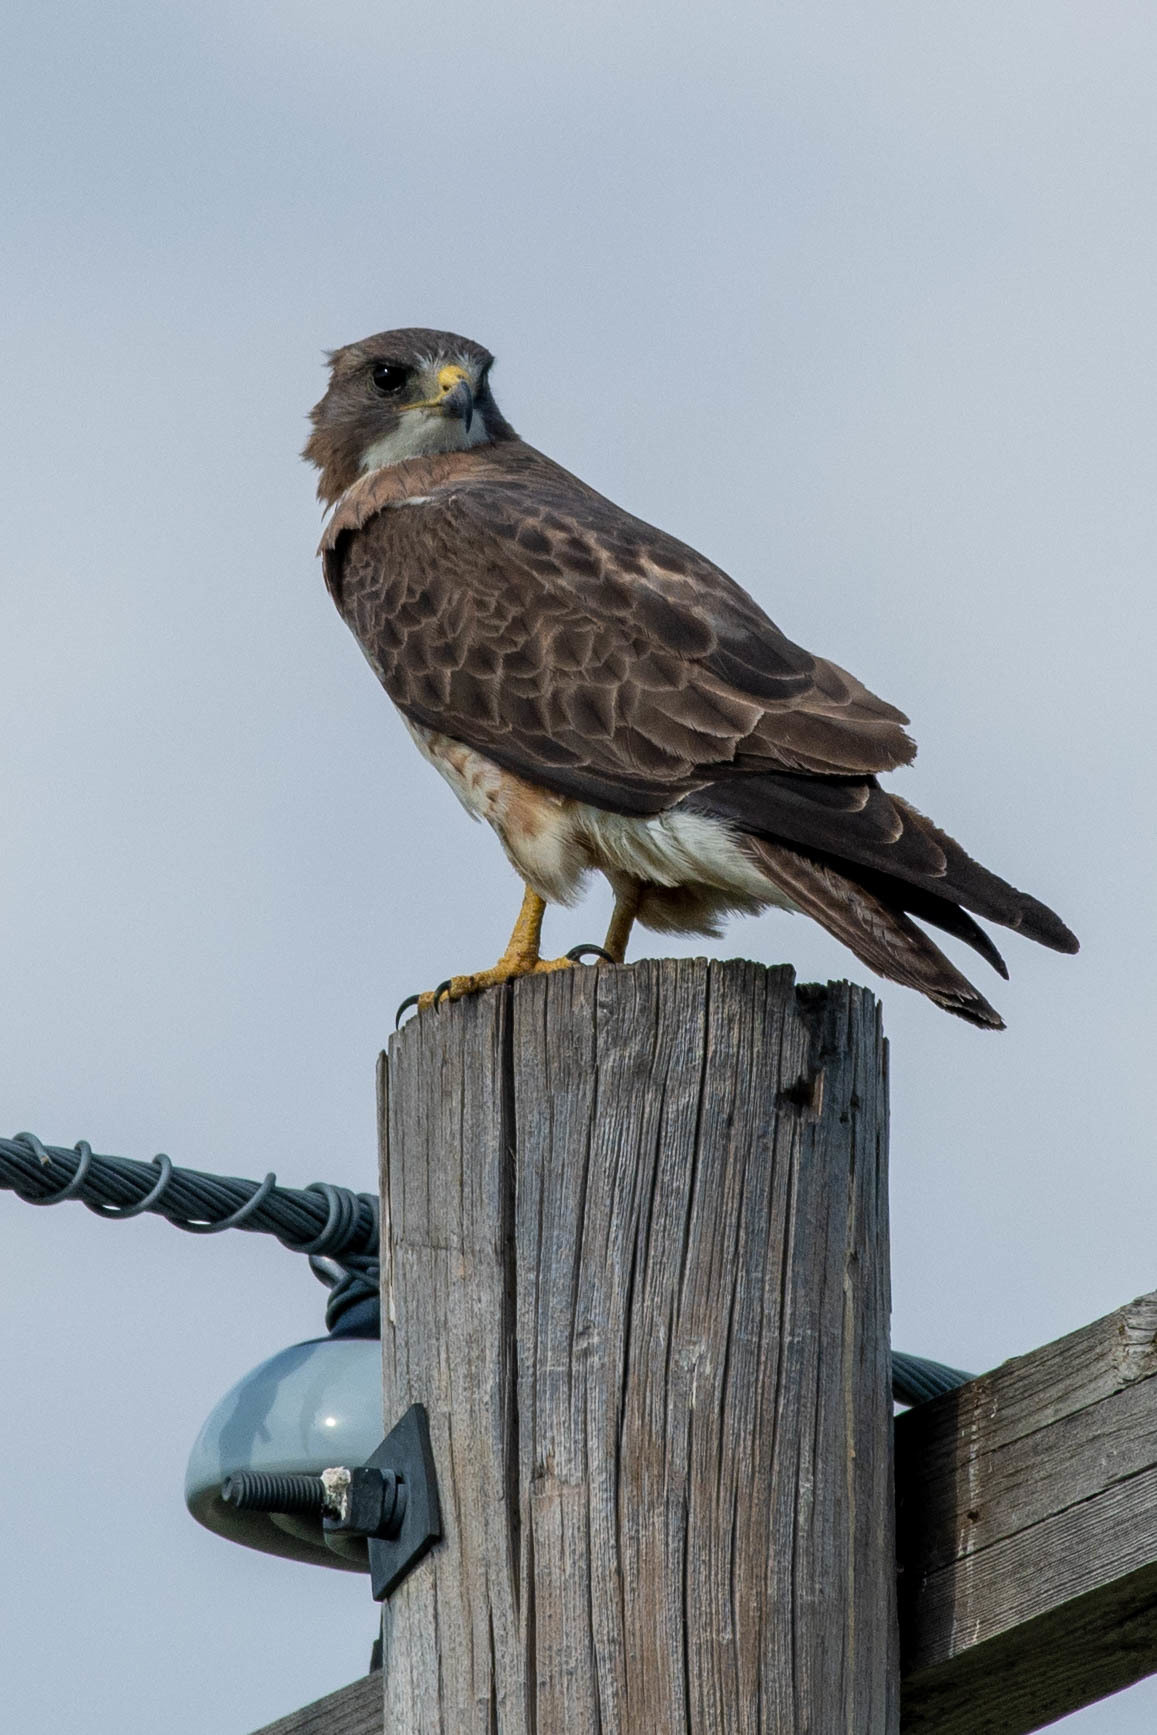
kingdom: Animalia
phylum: Chordata
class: Aves
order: Accipitriformes
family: Accipitridae
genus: Buteo
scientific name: Buteo swainsoni
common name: Swainson's hawk
